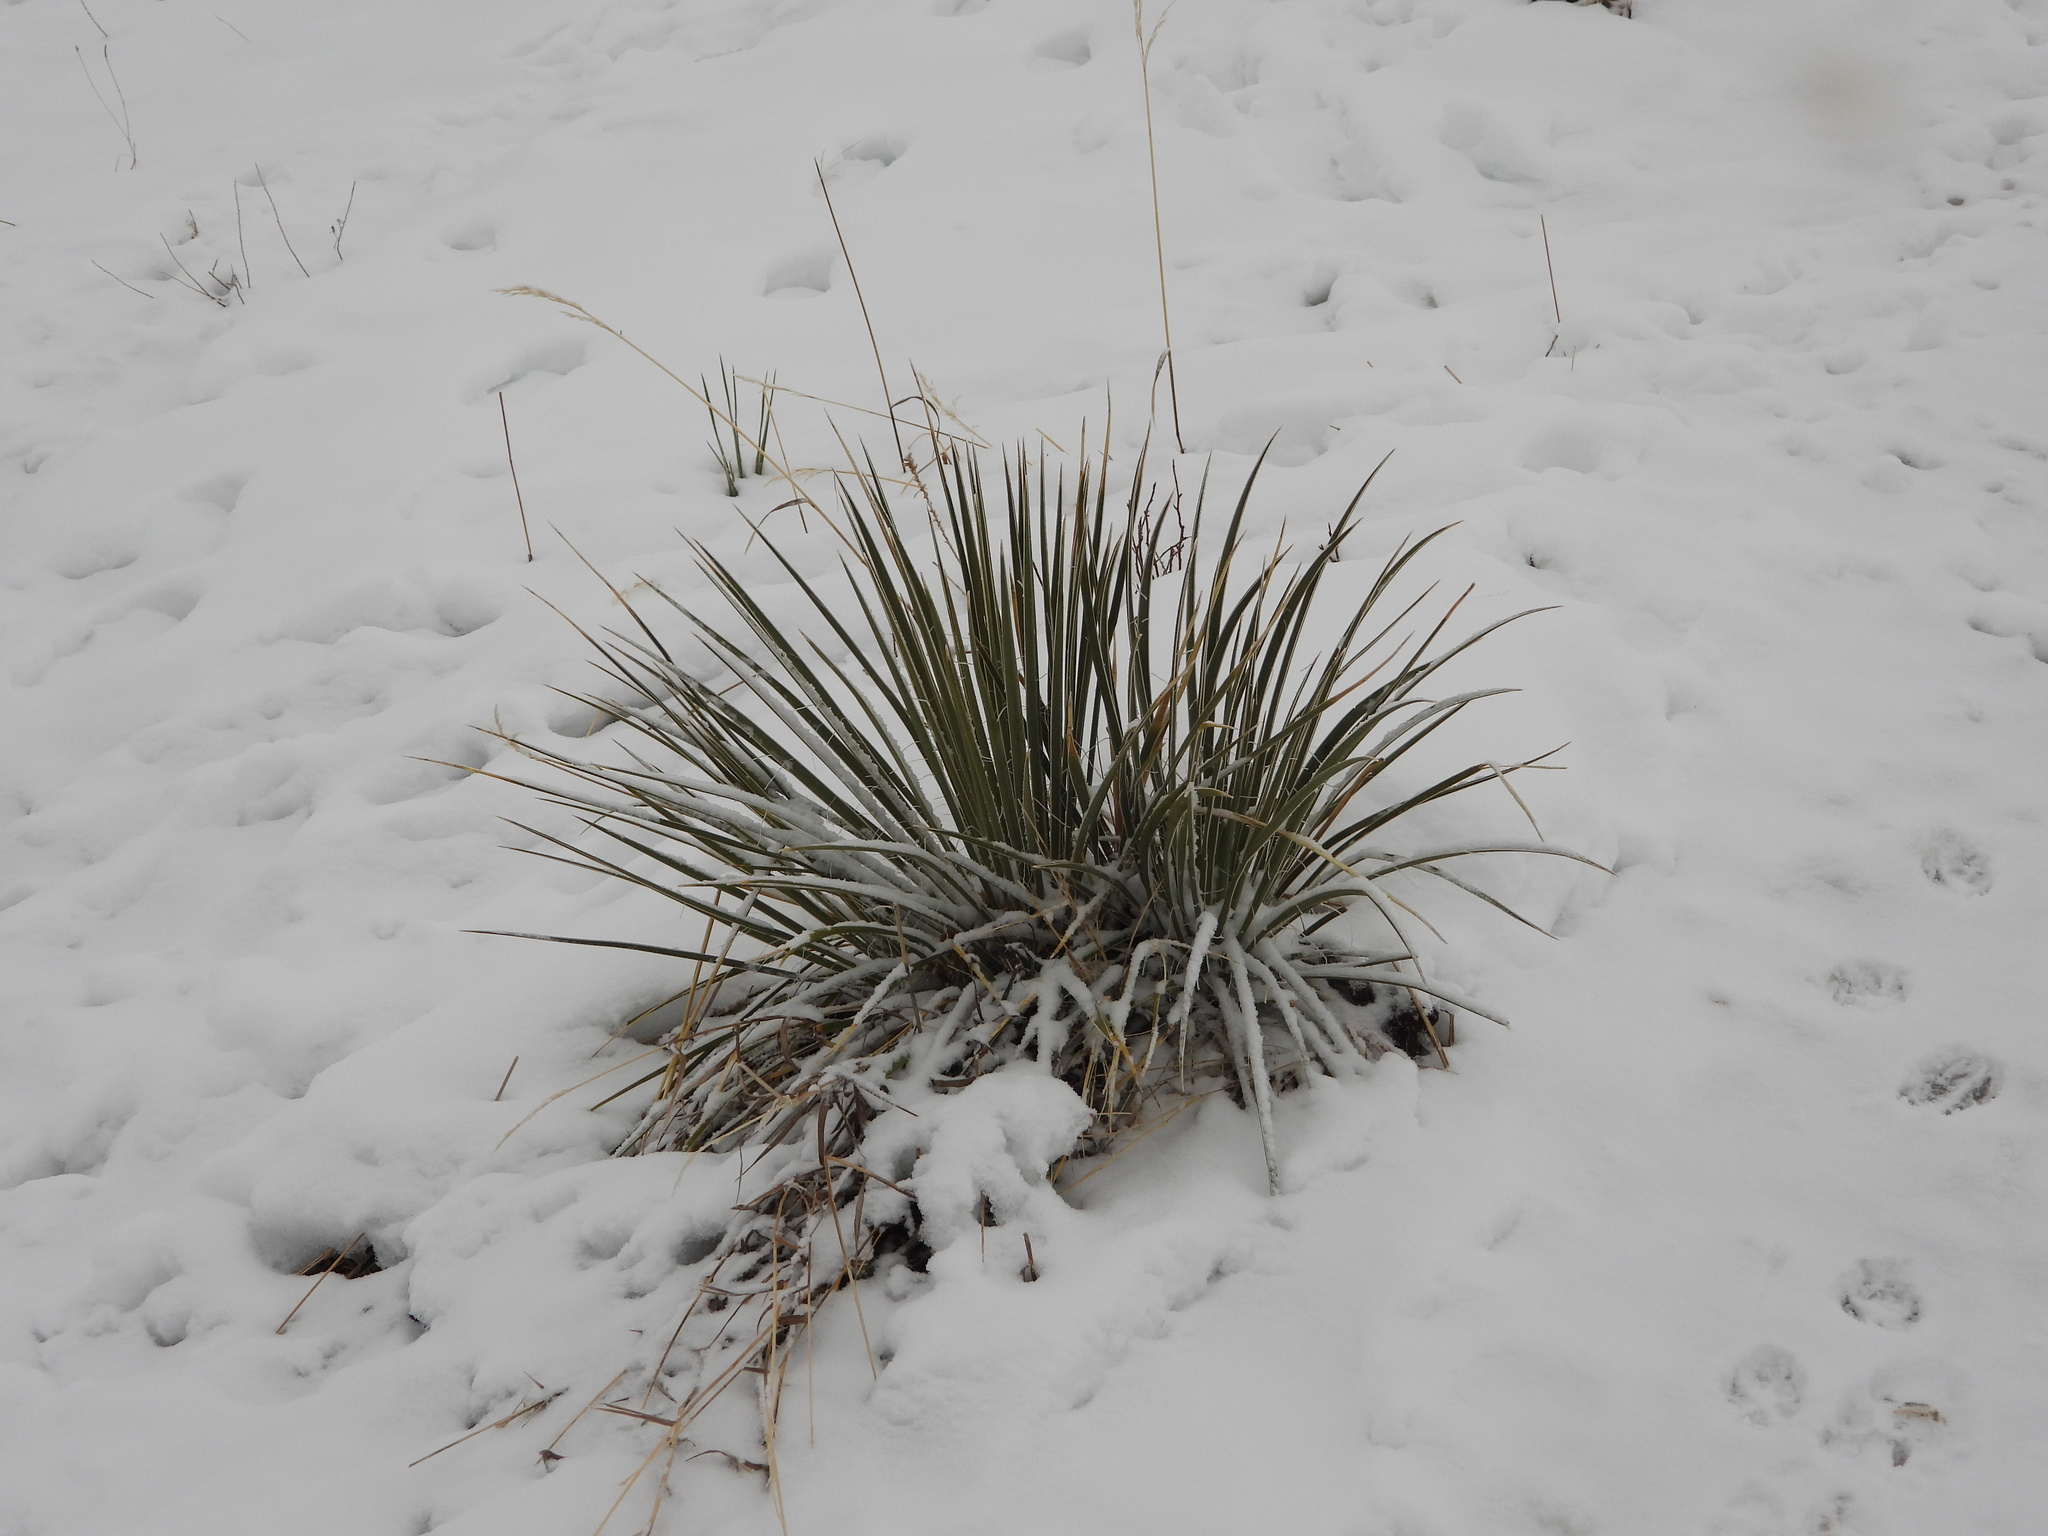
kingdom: Plantae
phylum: Tracheophyta
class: Liliopsida
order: Asparagales
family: Asparagaceae
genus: Yucca
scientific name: Yucca glauca
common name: Great plains yucca
